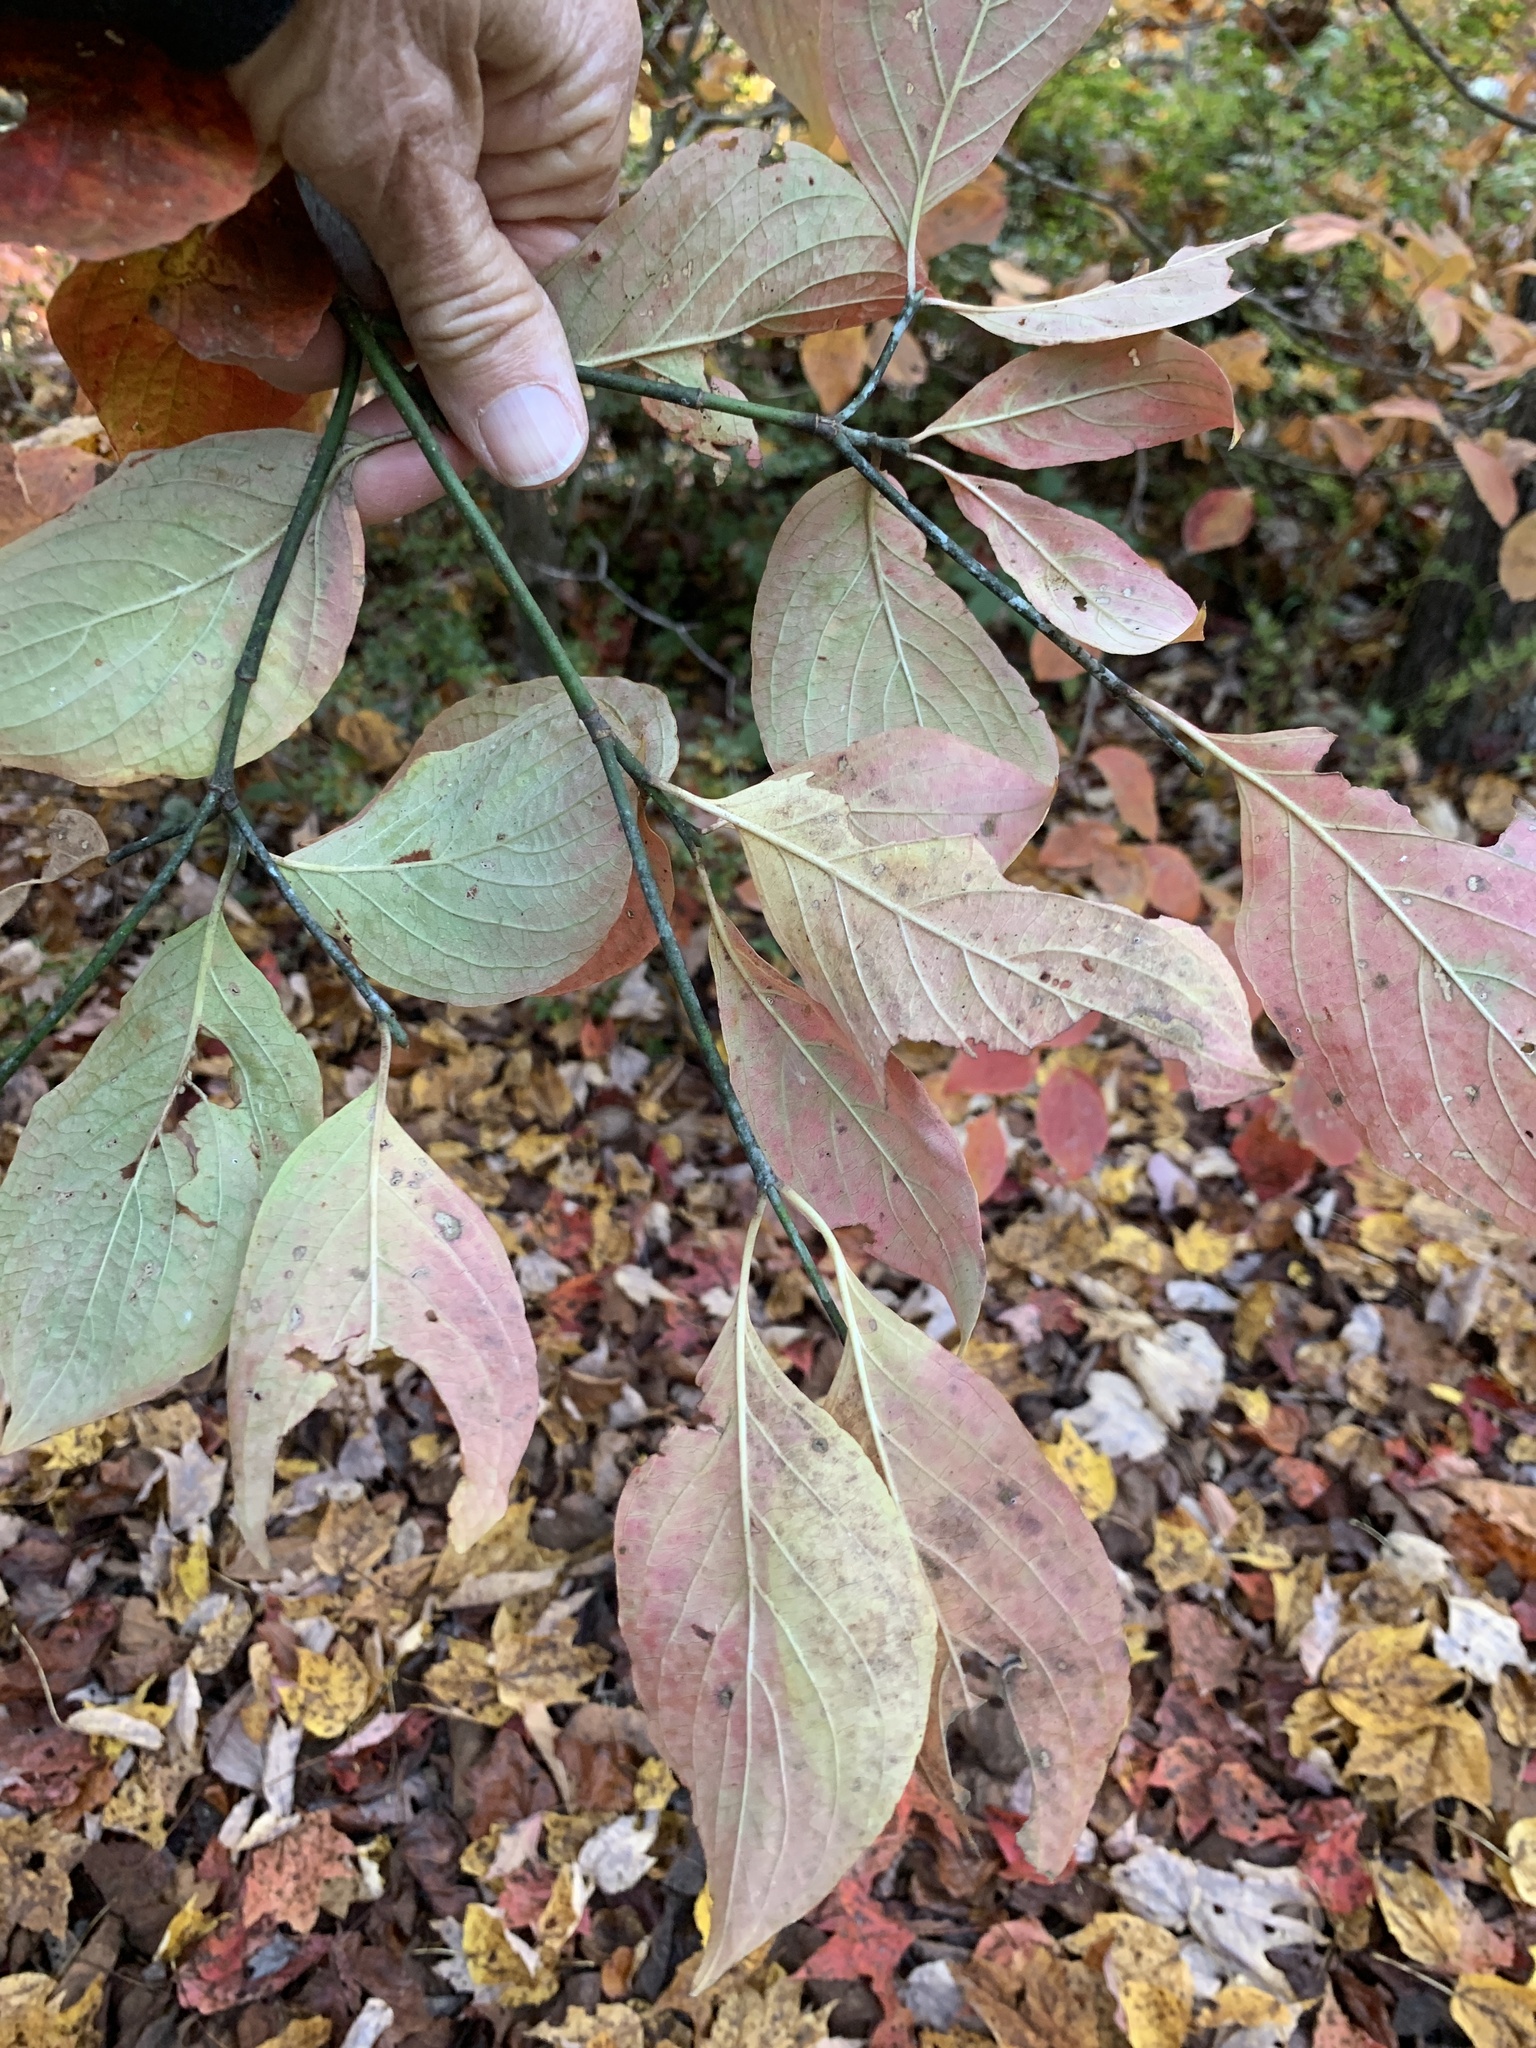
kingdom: Plantae
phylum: Tracheophyta
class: Magnoliopsida
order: Cornales
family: Cornaceae
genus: Cornus
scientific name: Cornus florida
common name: Flowering dogwood
